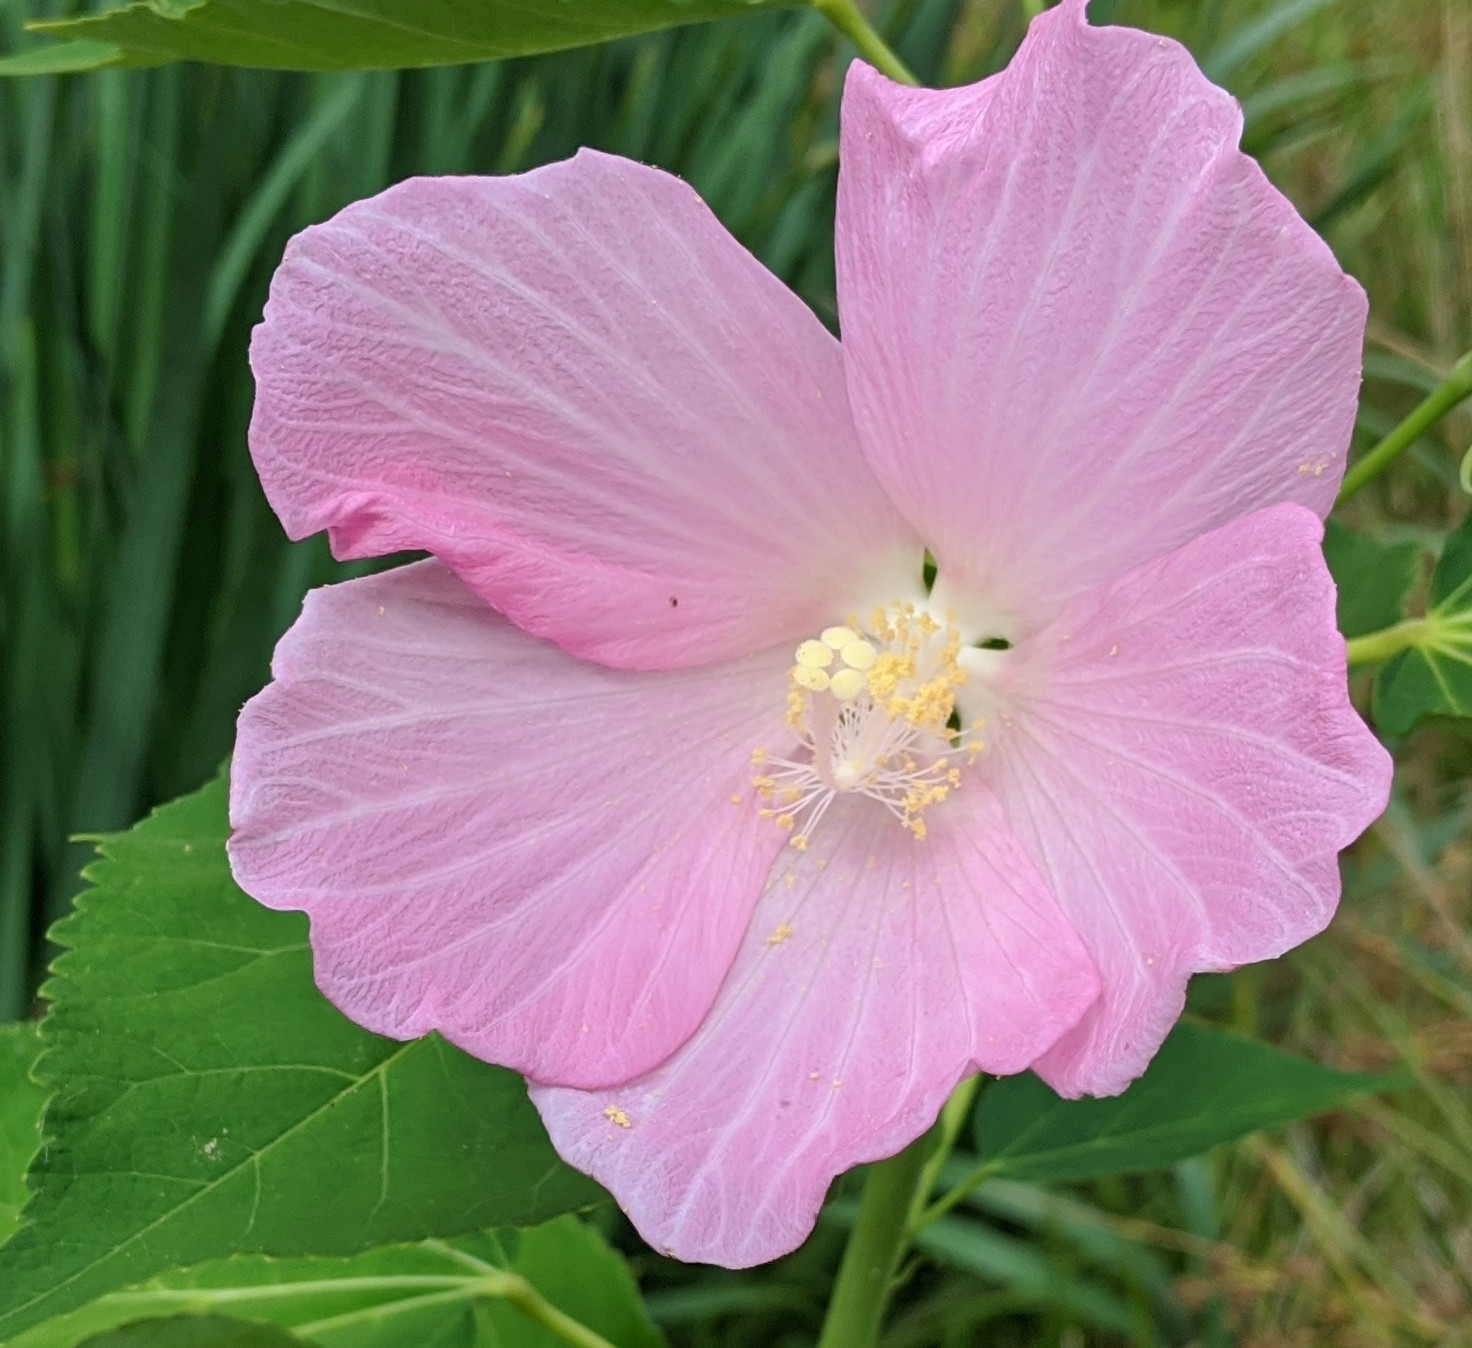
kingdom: Plantae
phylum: Tracheophyta
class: Magnoliopsida
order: Malvales
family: Malvaceae
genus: Hibiscus
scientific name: Hibiscus moscheutos
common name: Common rose-mallow
